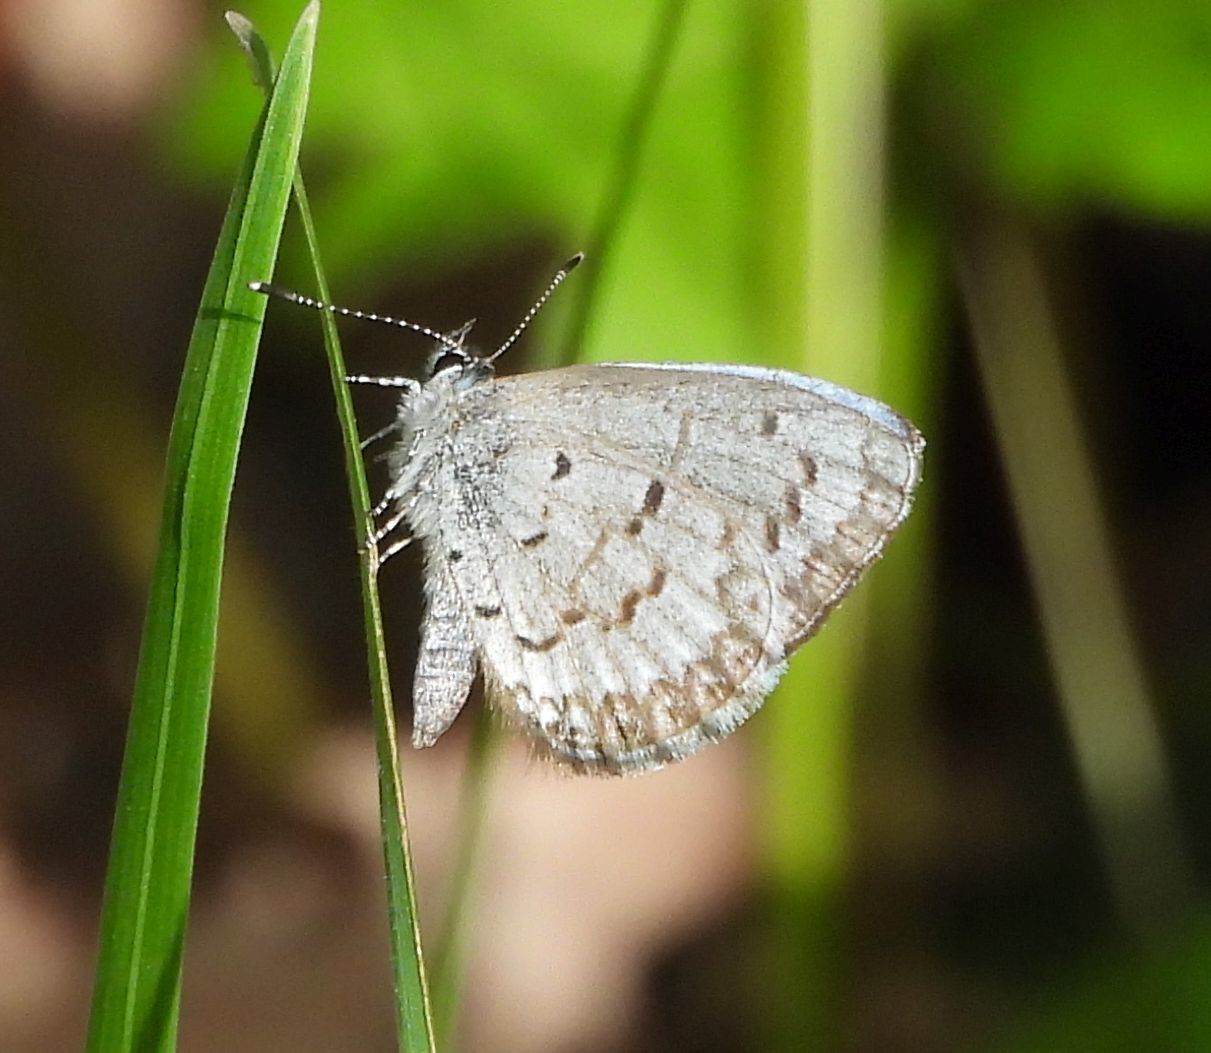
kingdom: Animalia
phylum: Arthropoda
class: Insecta
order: Lepidoptera
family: Lycaenidae
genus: Celastrina
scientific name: Celastrina lucia
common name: Lucia azure
